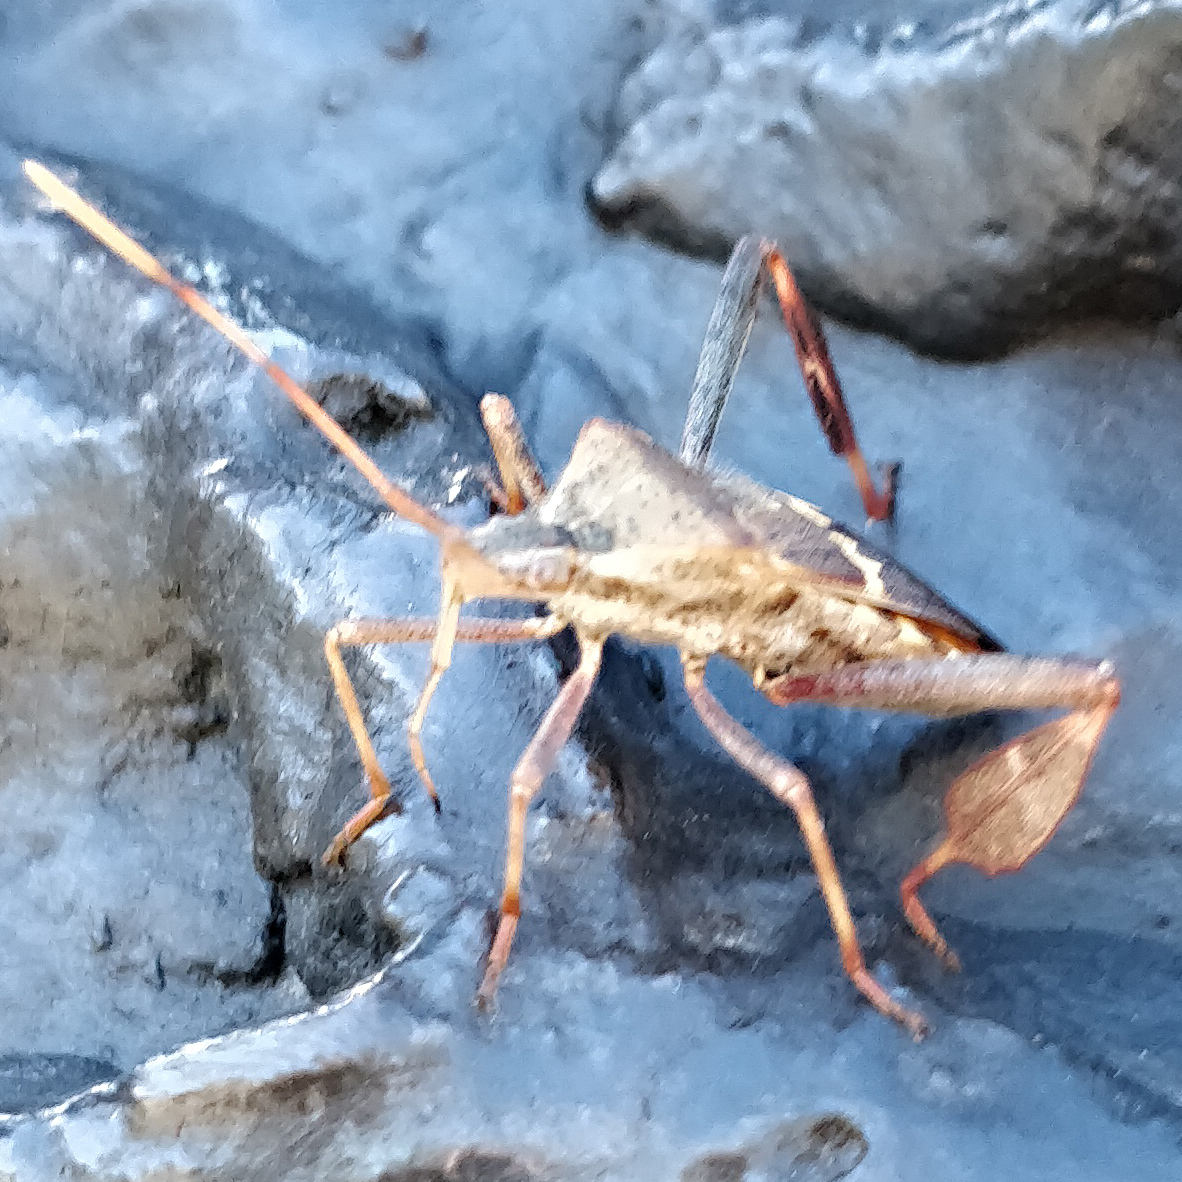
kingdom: Animalia
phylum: Arthropoda
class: Insecta
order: Hemiptera
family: Coreidae
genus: Leptoglossus
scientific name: Leptoglossus clypealis
